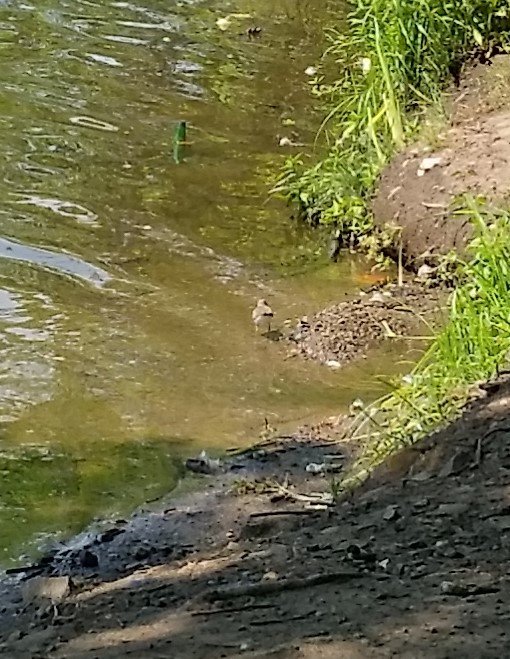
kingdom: Animalia
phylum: Chordata
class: Aves
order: Charadriiformes
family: Scolopacidae
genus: Actitis
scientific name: Actitis macularius
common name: Spotted sandpiper
